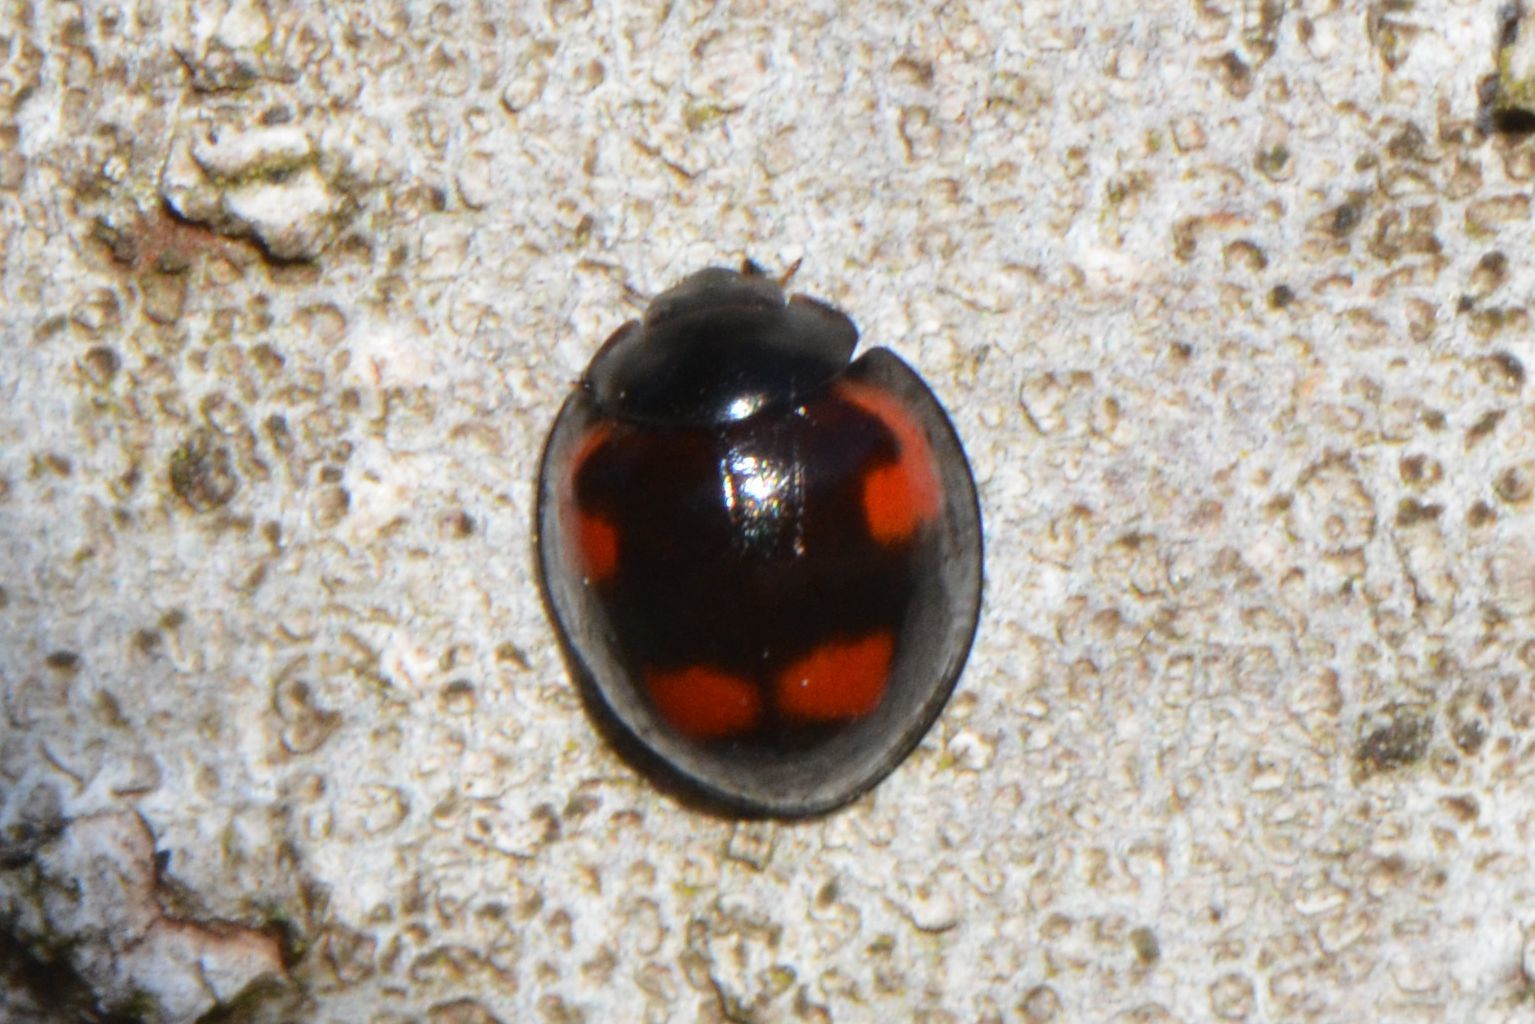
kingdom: Animalia
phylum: Arthropoda
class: Insecta
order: Coleoptera
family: Coccinellidae
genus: Brumus
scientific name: Brumus quadripustulatus
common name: Ladybird beetle
